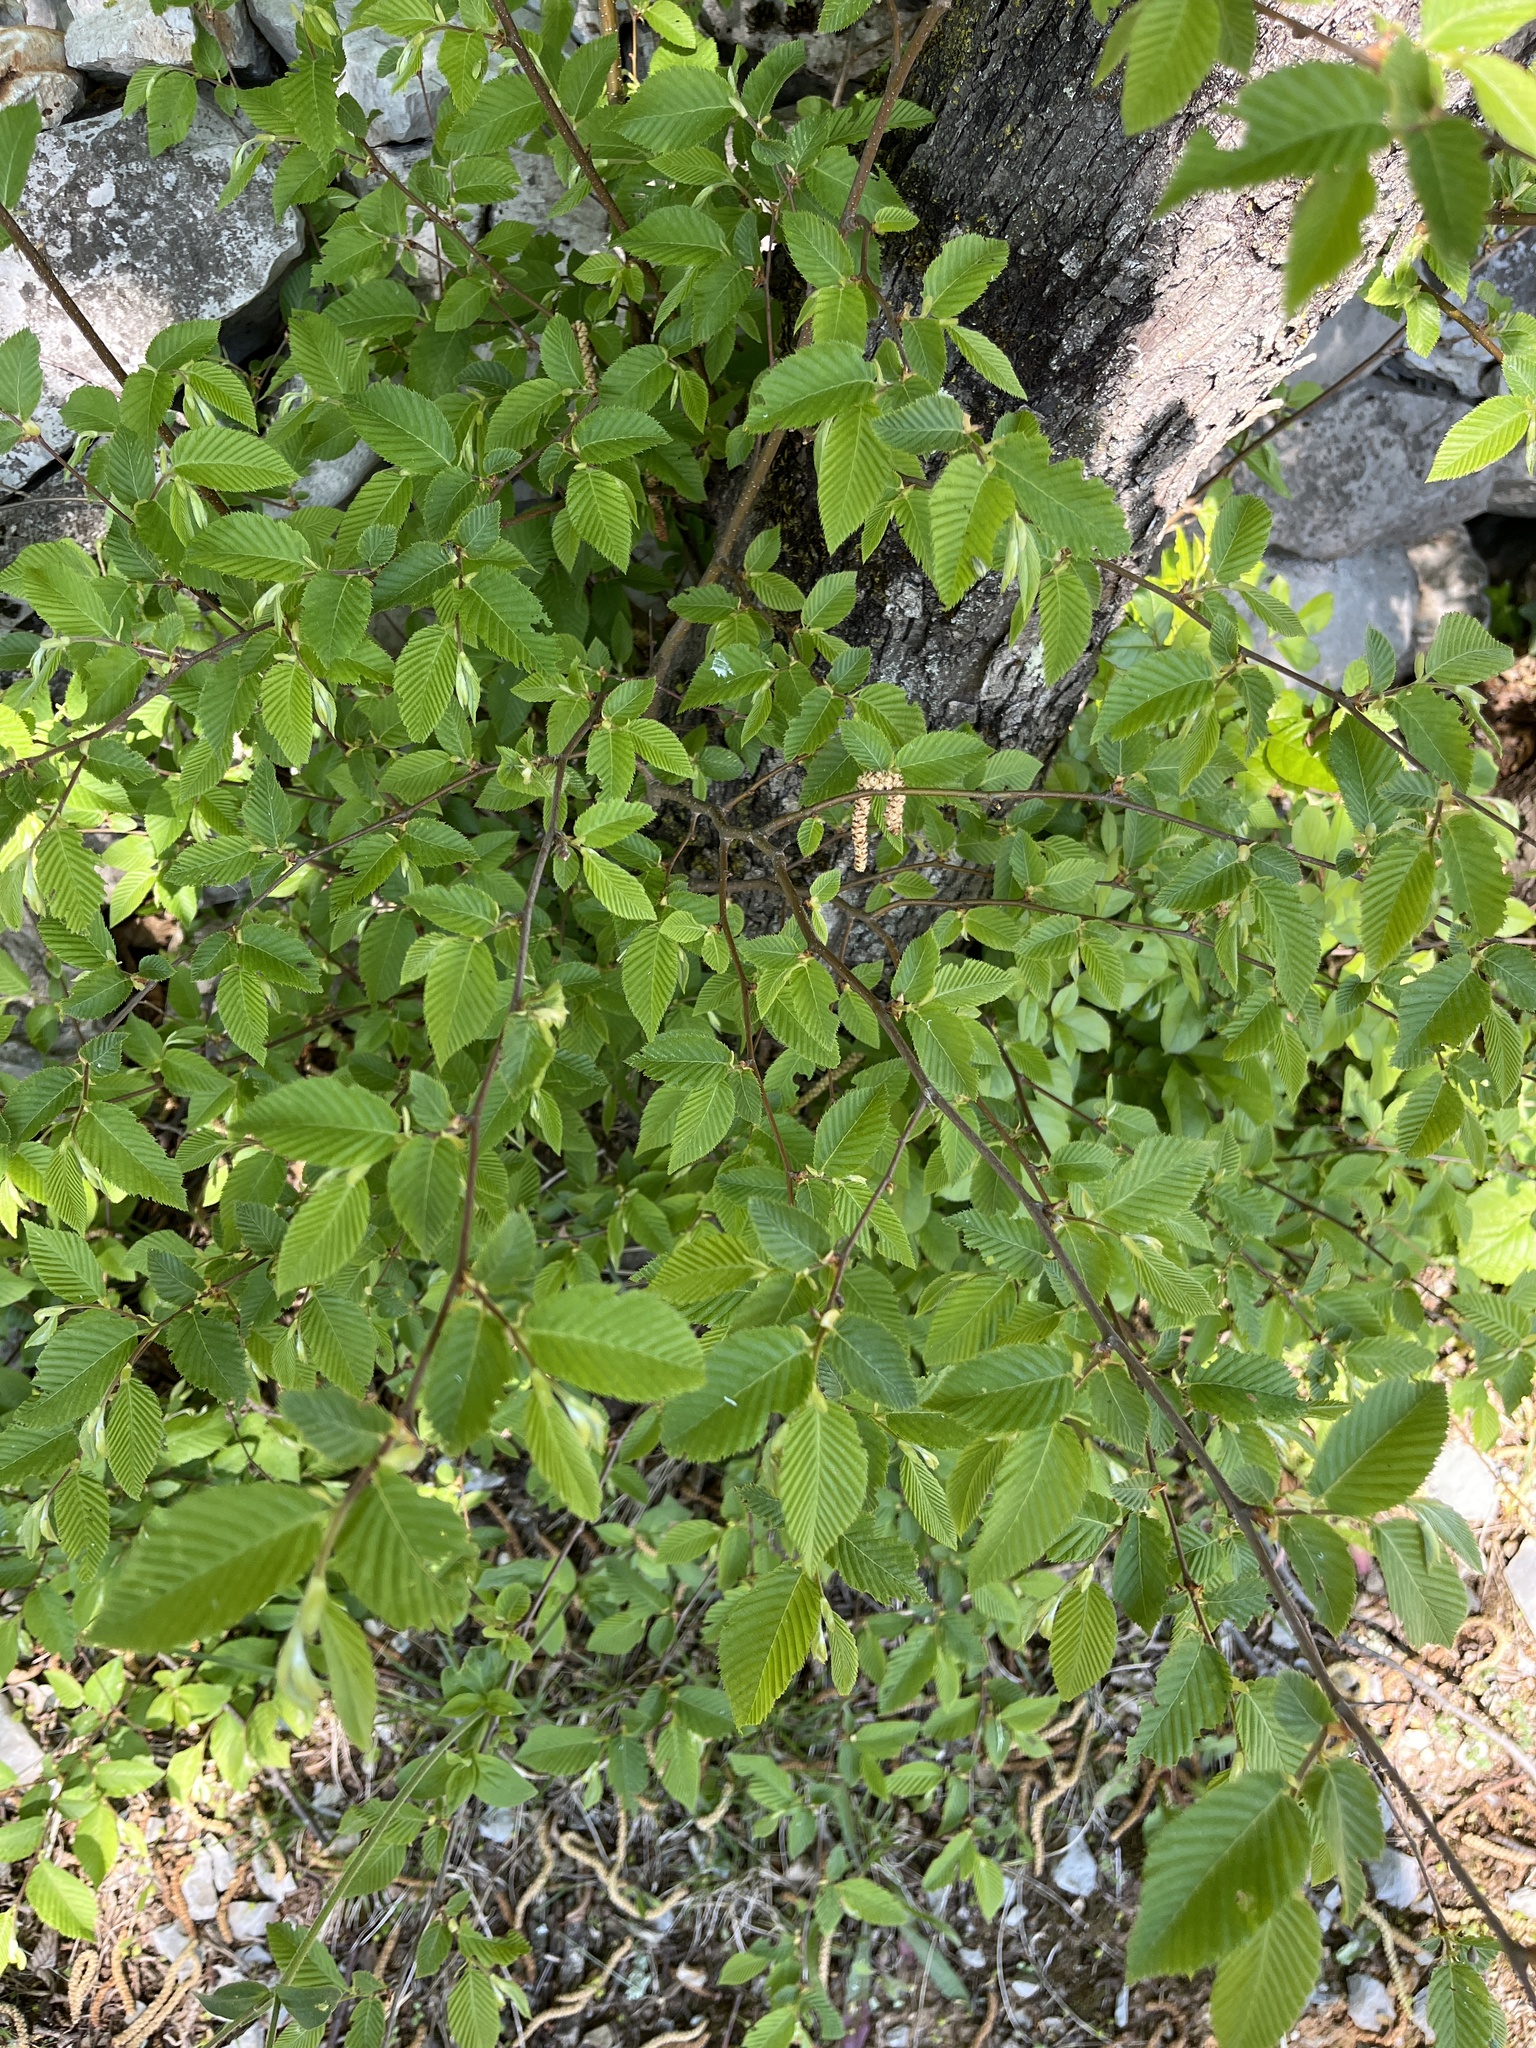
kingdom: Plantae
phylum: Tracheophyta
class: Magnoliopsida
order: Fagales
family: Betulaceae
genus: Ostrya
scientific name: Ostrya carpinifolia
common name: European hop-hornbeam
